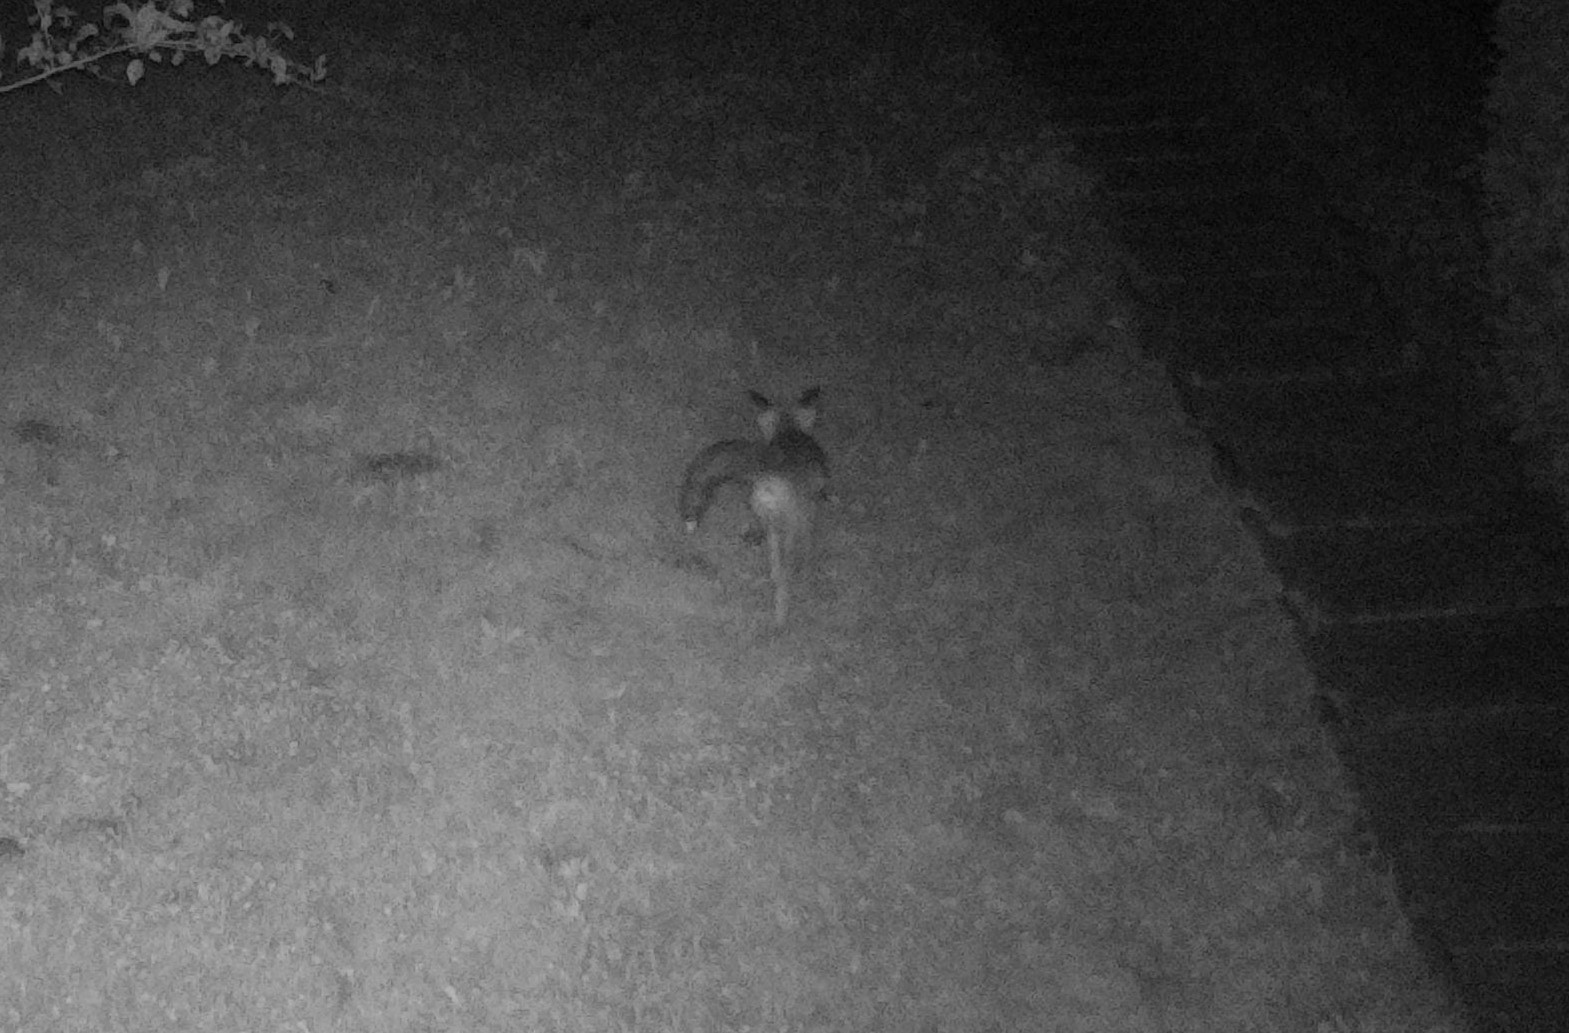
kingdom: Animalia
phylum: Chordata
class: Mammalia
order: Carnivora
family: Canidae
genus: Vulpes
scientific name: Vulpes vulpes
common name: Red fox
